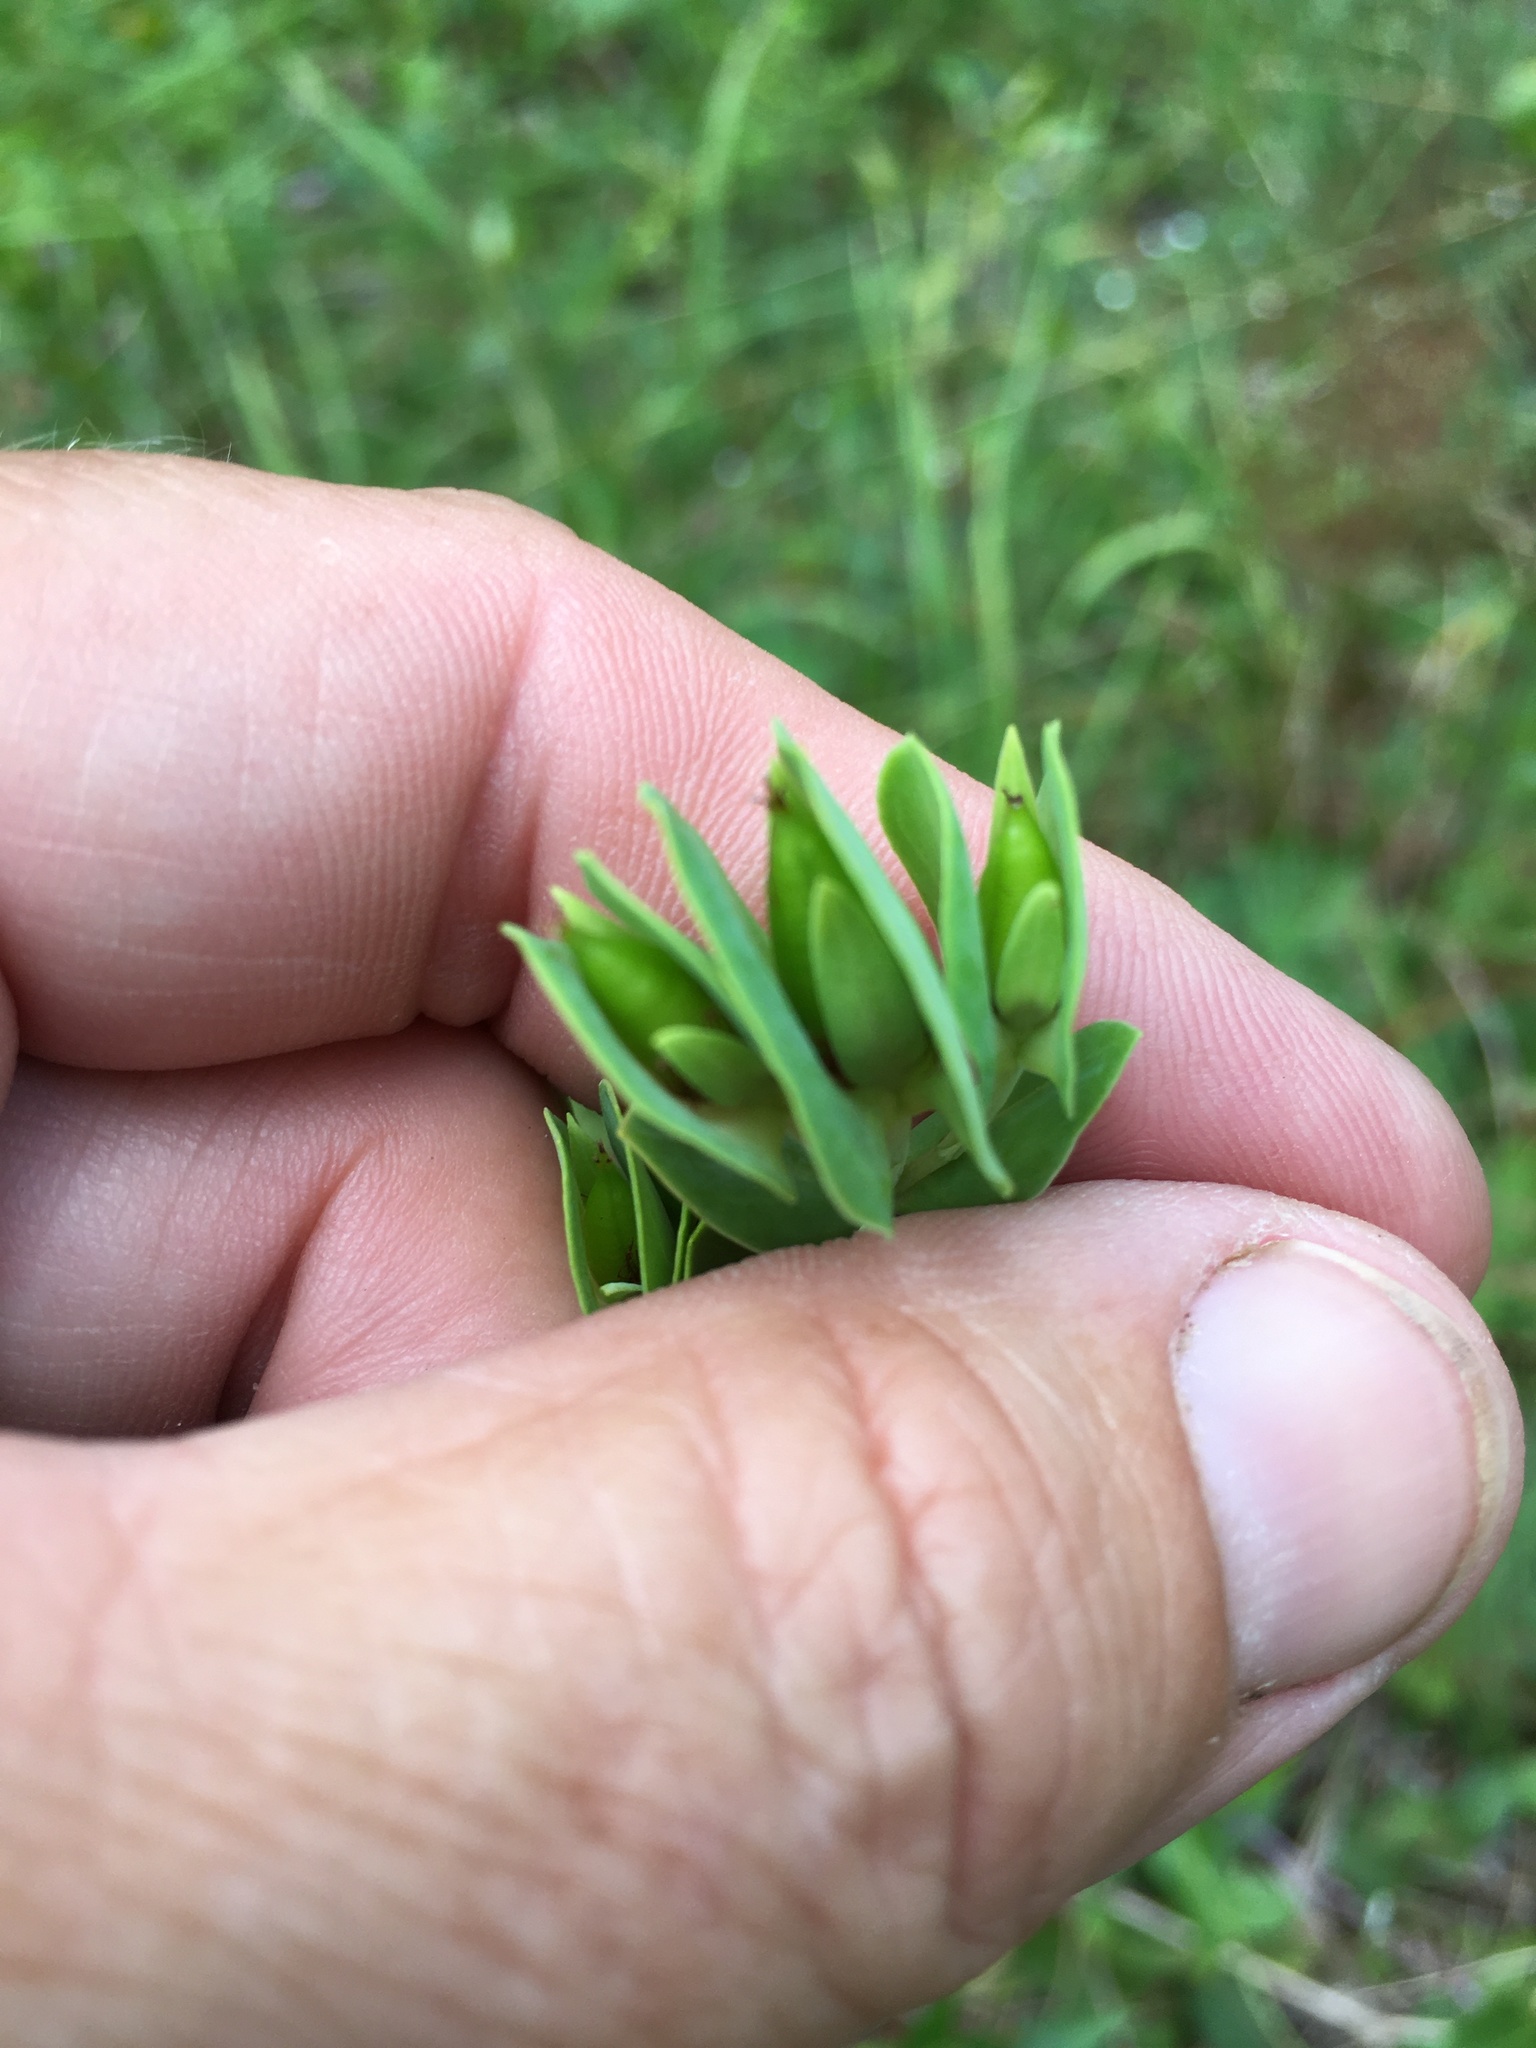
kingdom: Plantae
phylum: Tracheophyta
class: Magnoliopsida
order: Malpighiales
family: Hypericaceae
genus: Hypericum
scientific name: Hypericum crux-andreae
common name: St.-peter's-wort
